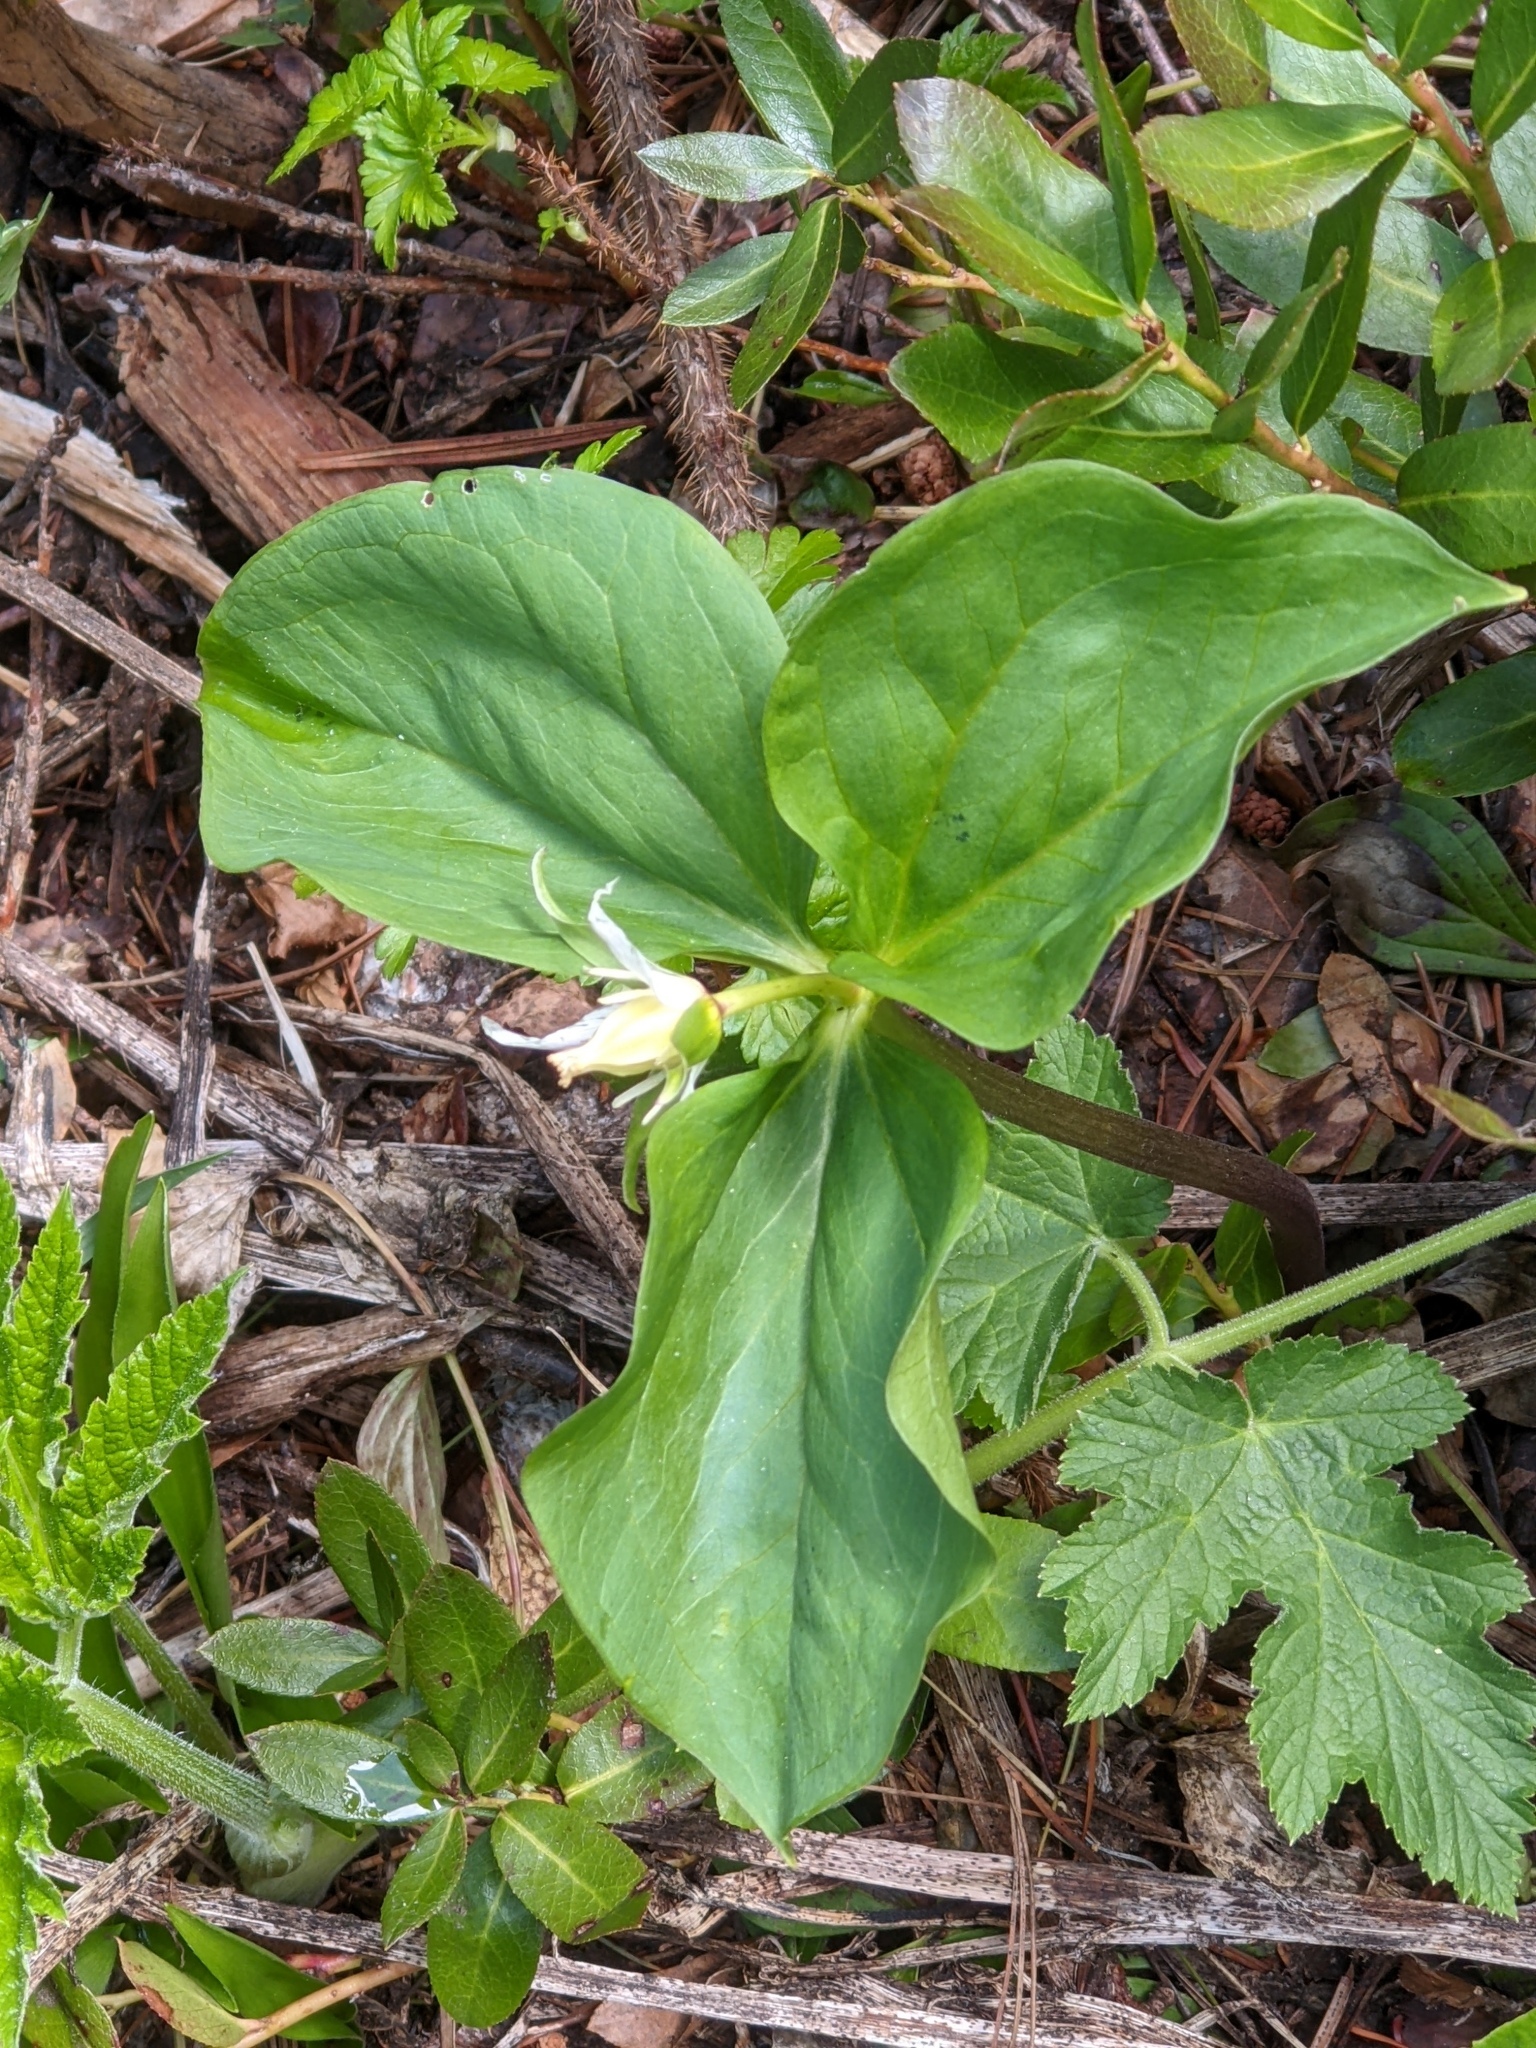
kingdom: Plantae
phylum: Tracheophyta
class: Liliopsida
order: Liliales
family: Melanthiaceae
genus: Trillium
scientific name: Trillium ovatum
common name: Pacific trillium
